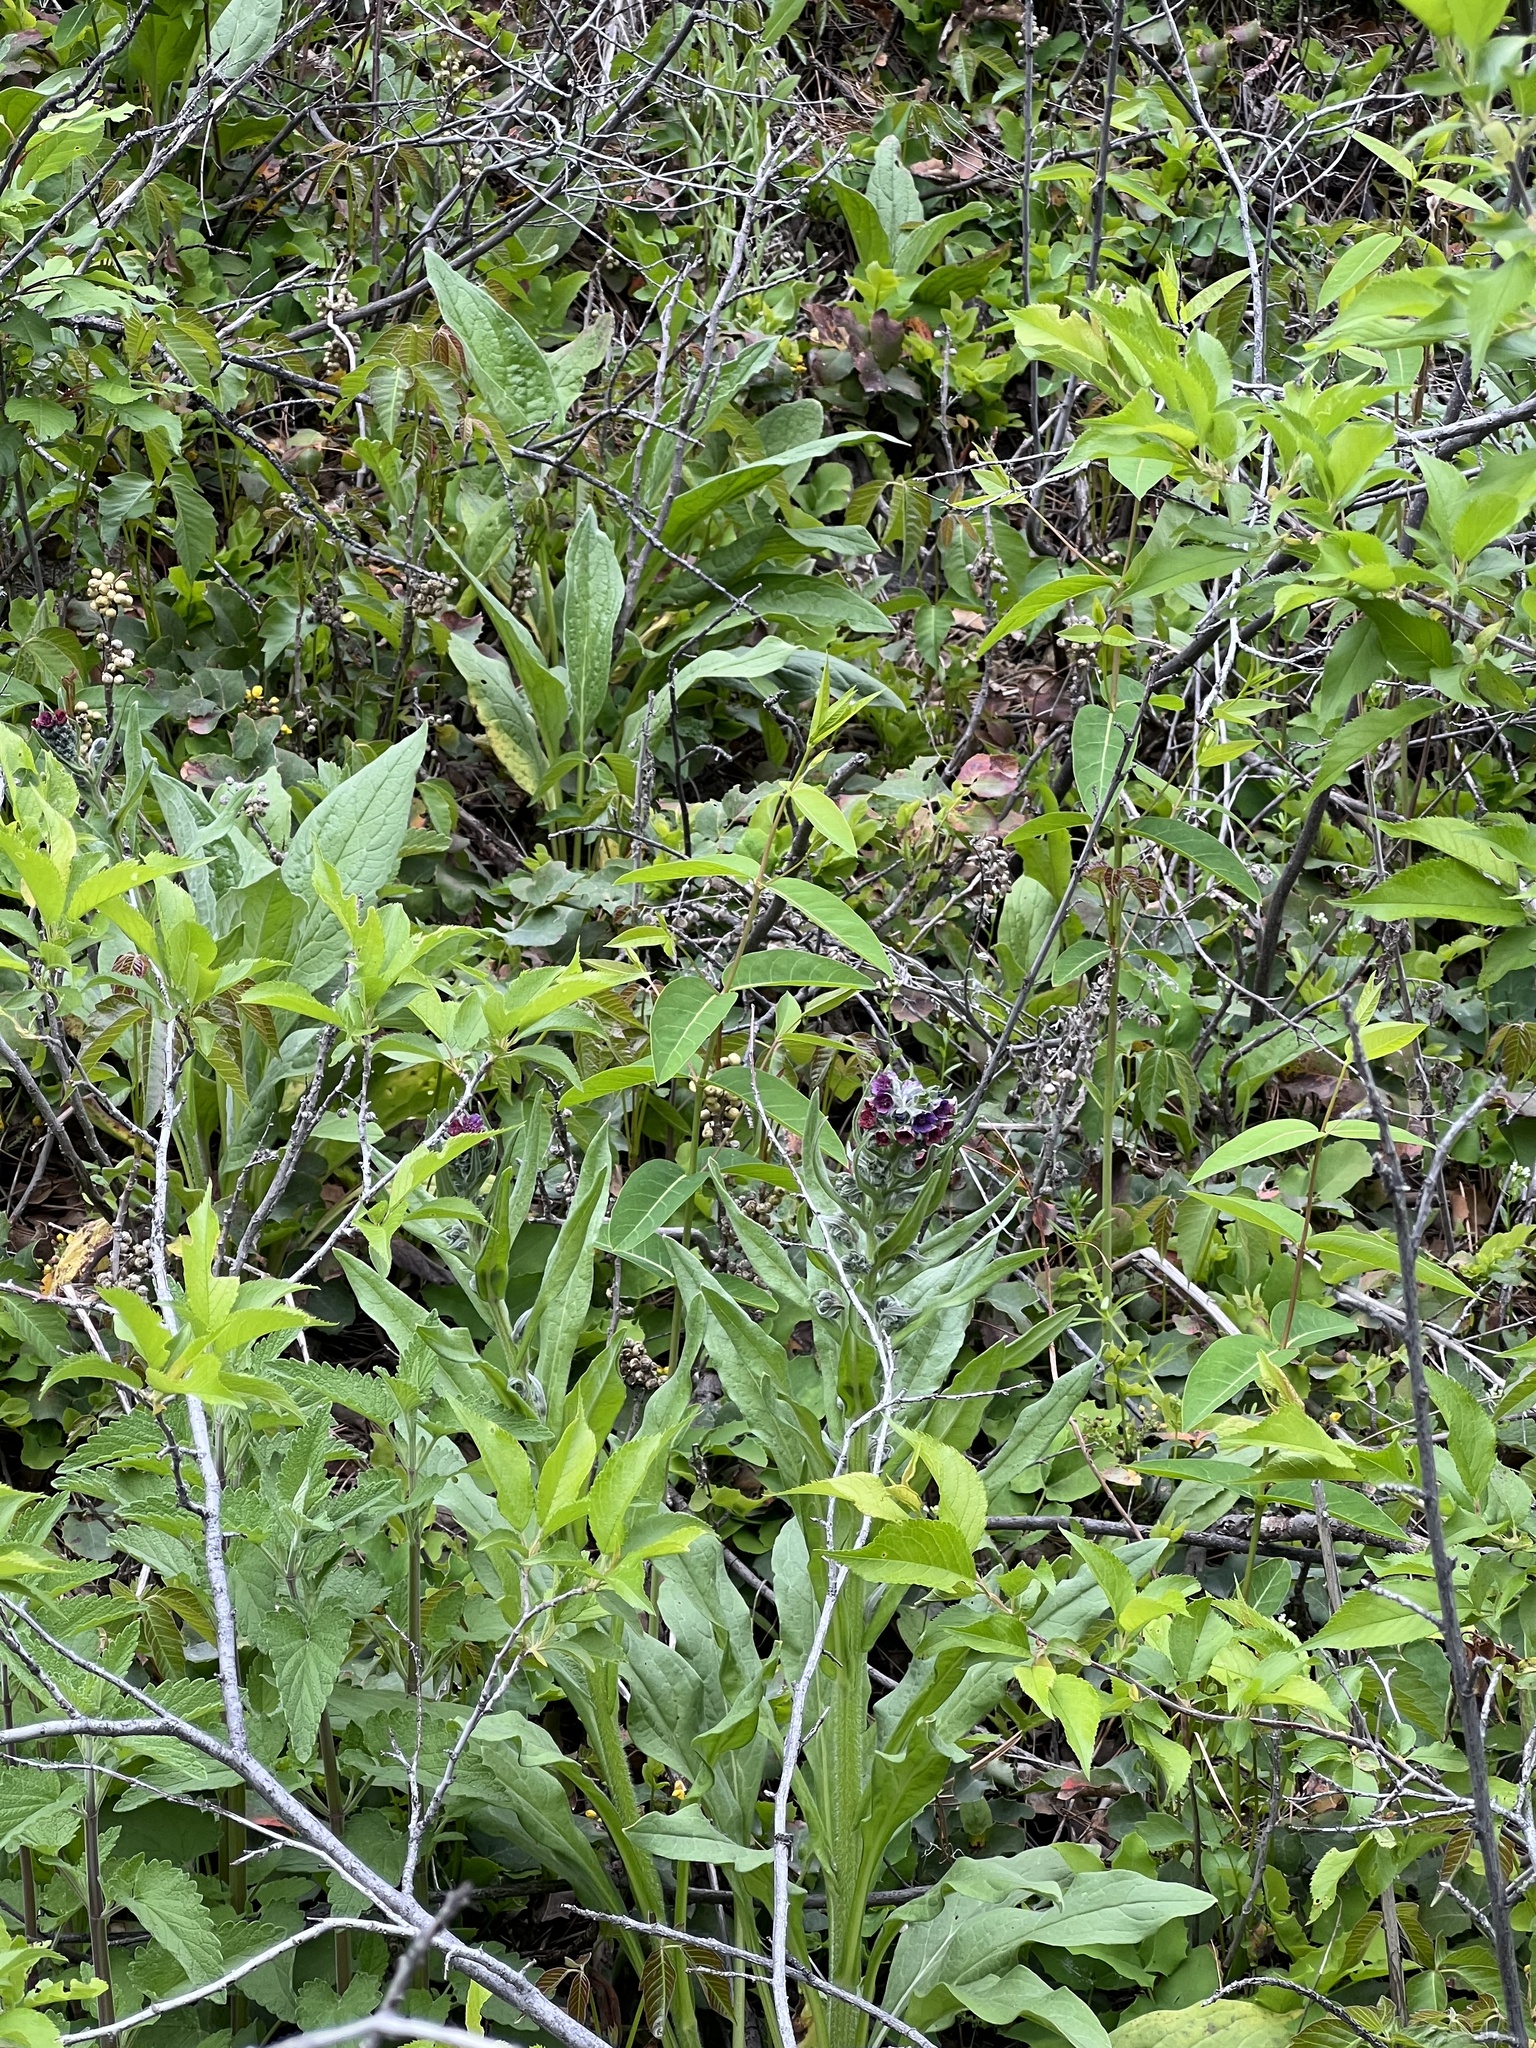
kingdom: Plantae
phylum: Tracheophyta
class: Magnoliopsida
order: Boraginales
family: Boraginaceae
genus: Cynoglossum
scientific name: Cynoglossum officinale
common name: Hound's-tongue
